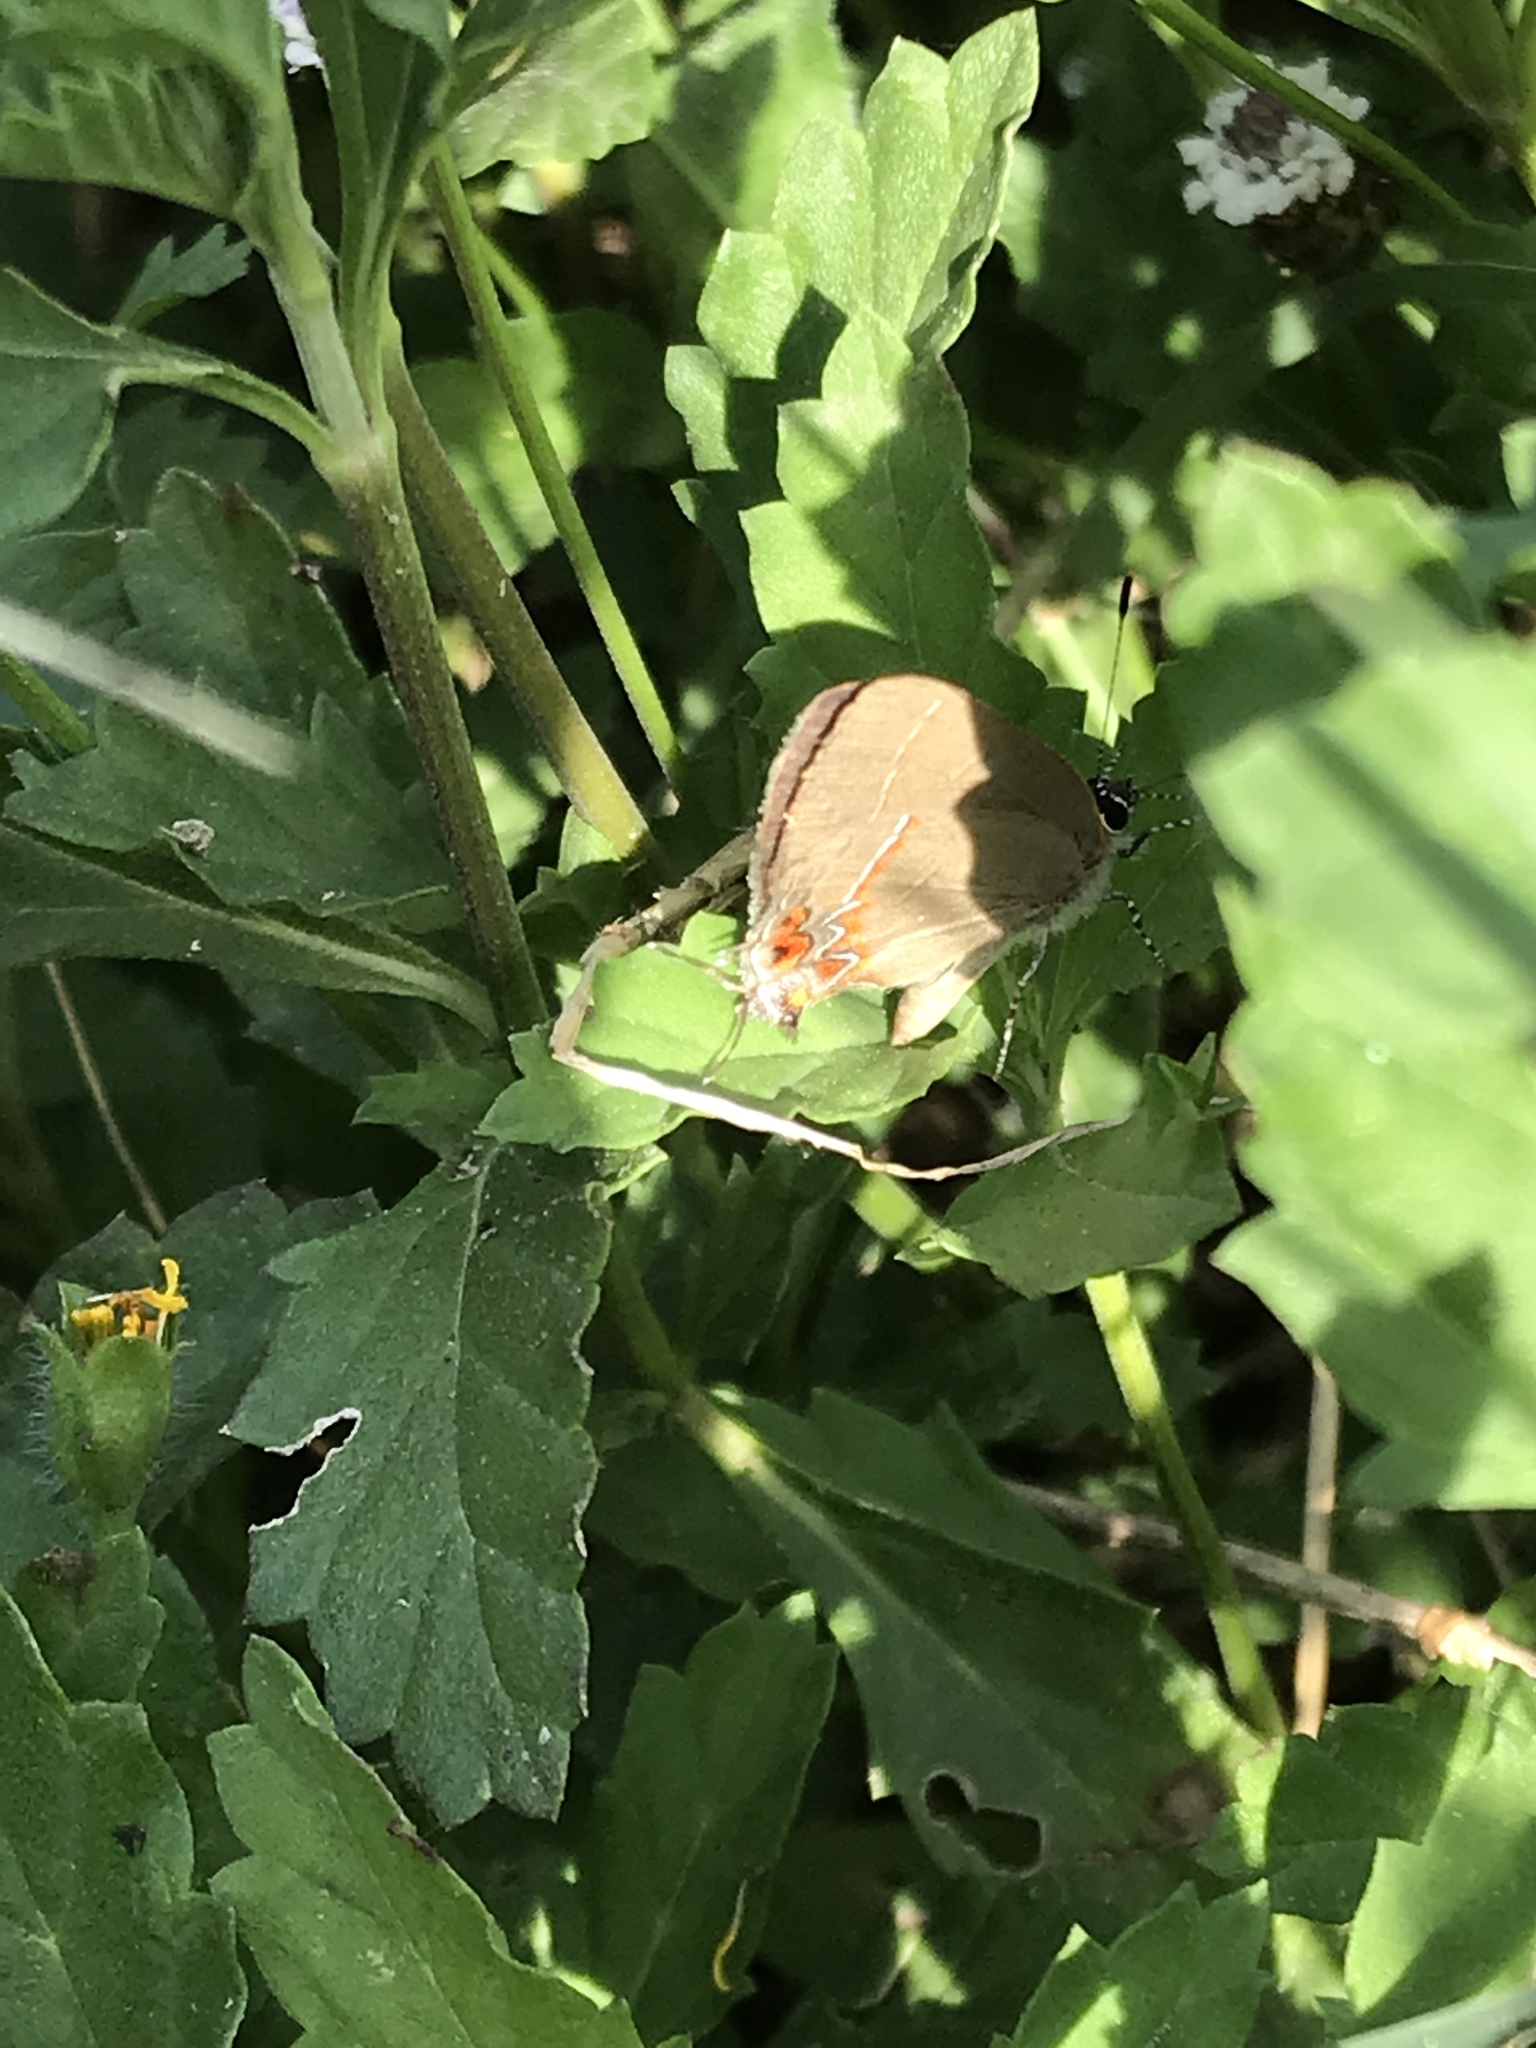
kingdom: Animalia
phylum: Arthropoda
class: Insecta
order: Lepidoptera
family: Lycaenidae
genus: Calycopis
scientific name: Calycopis isobeon
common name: Dusky-blue groundstreak
